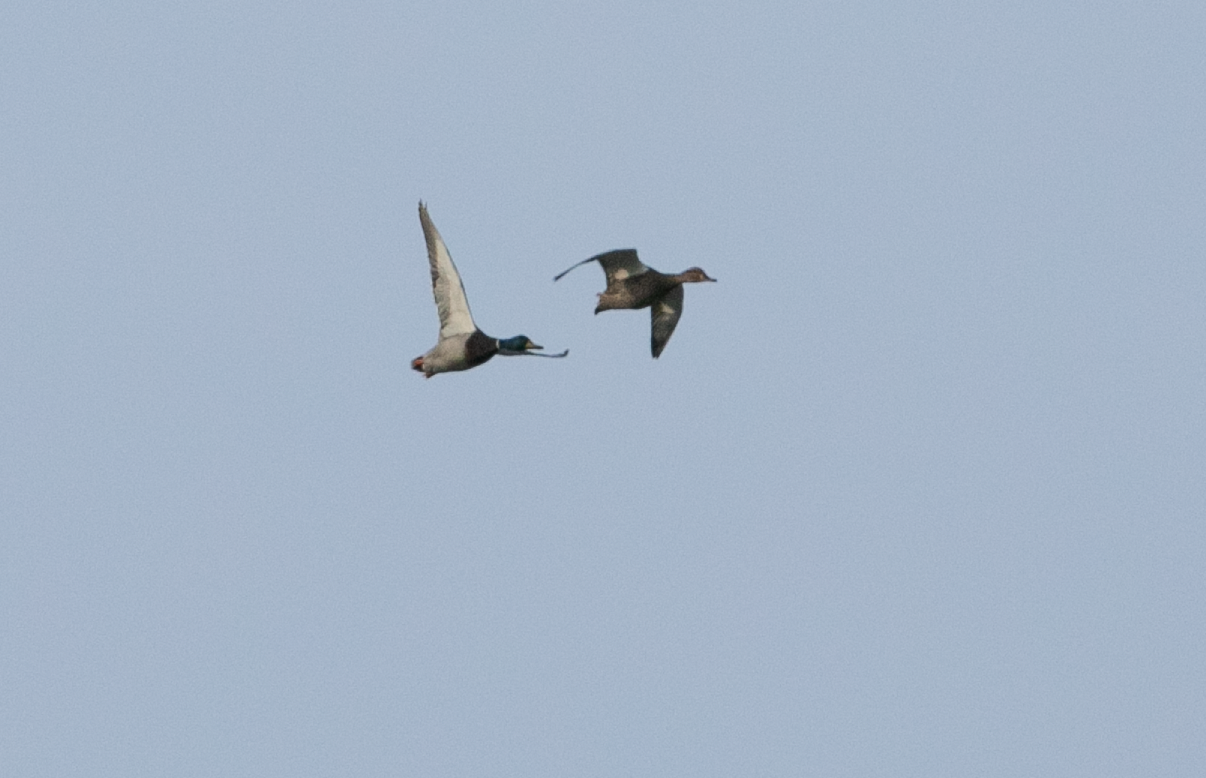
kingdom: Animalia
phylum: Chordata
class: Aves
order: Anseriformes
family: Anatidae
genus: Anas
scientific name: Anas platyrhynchos
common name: Mallard
